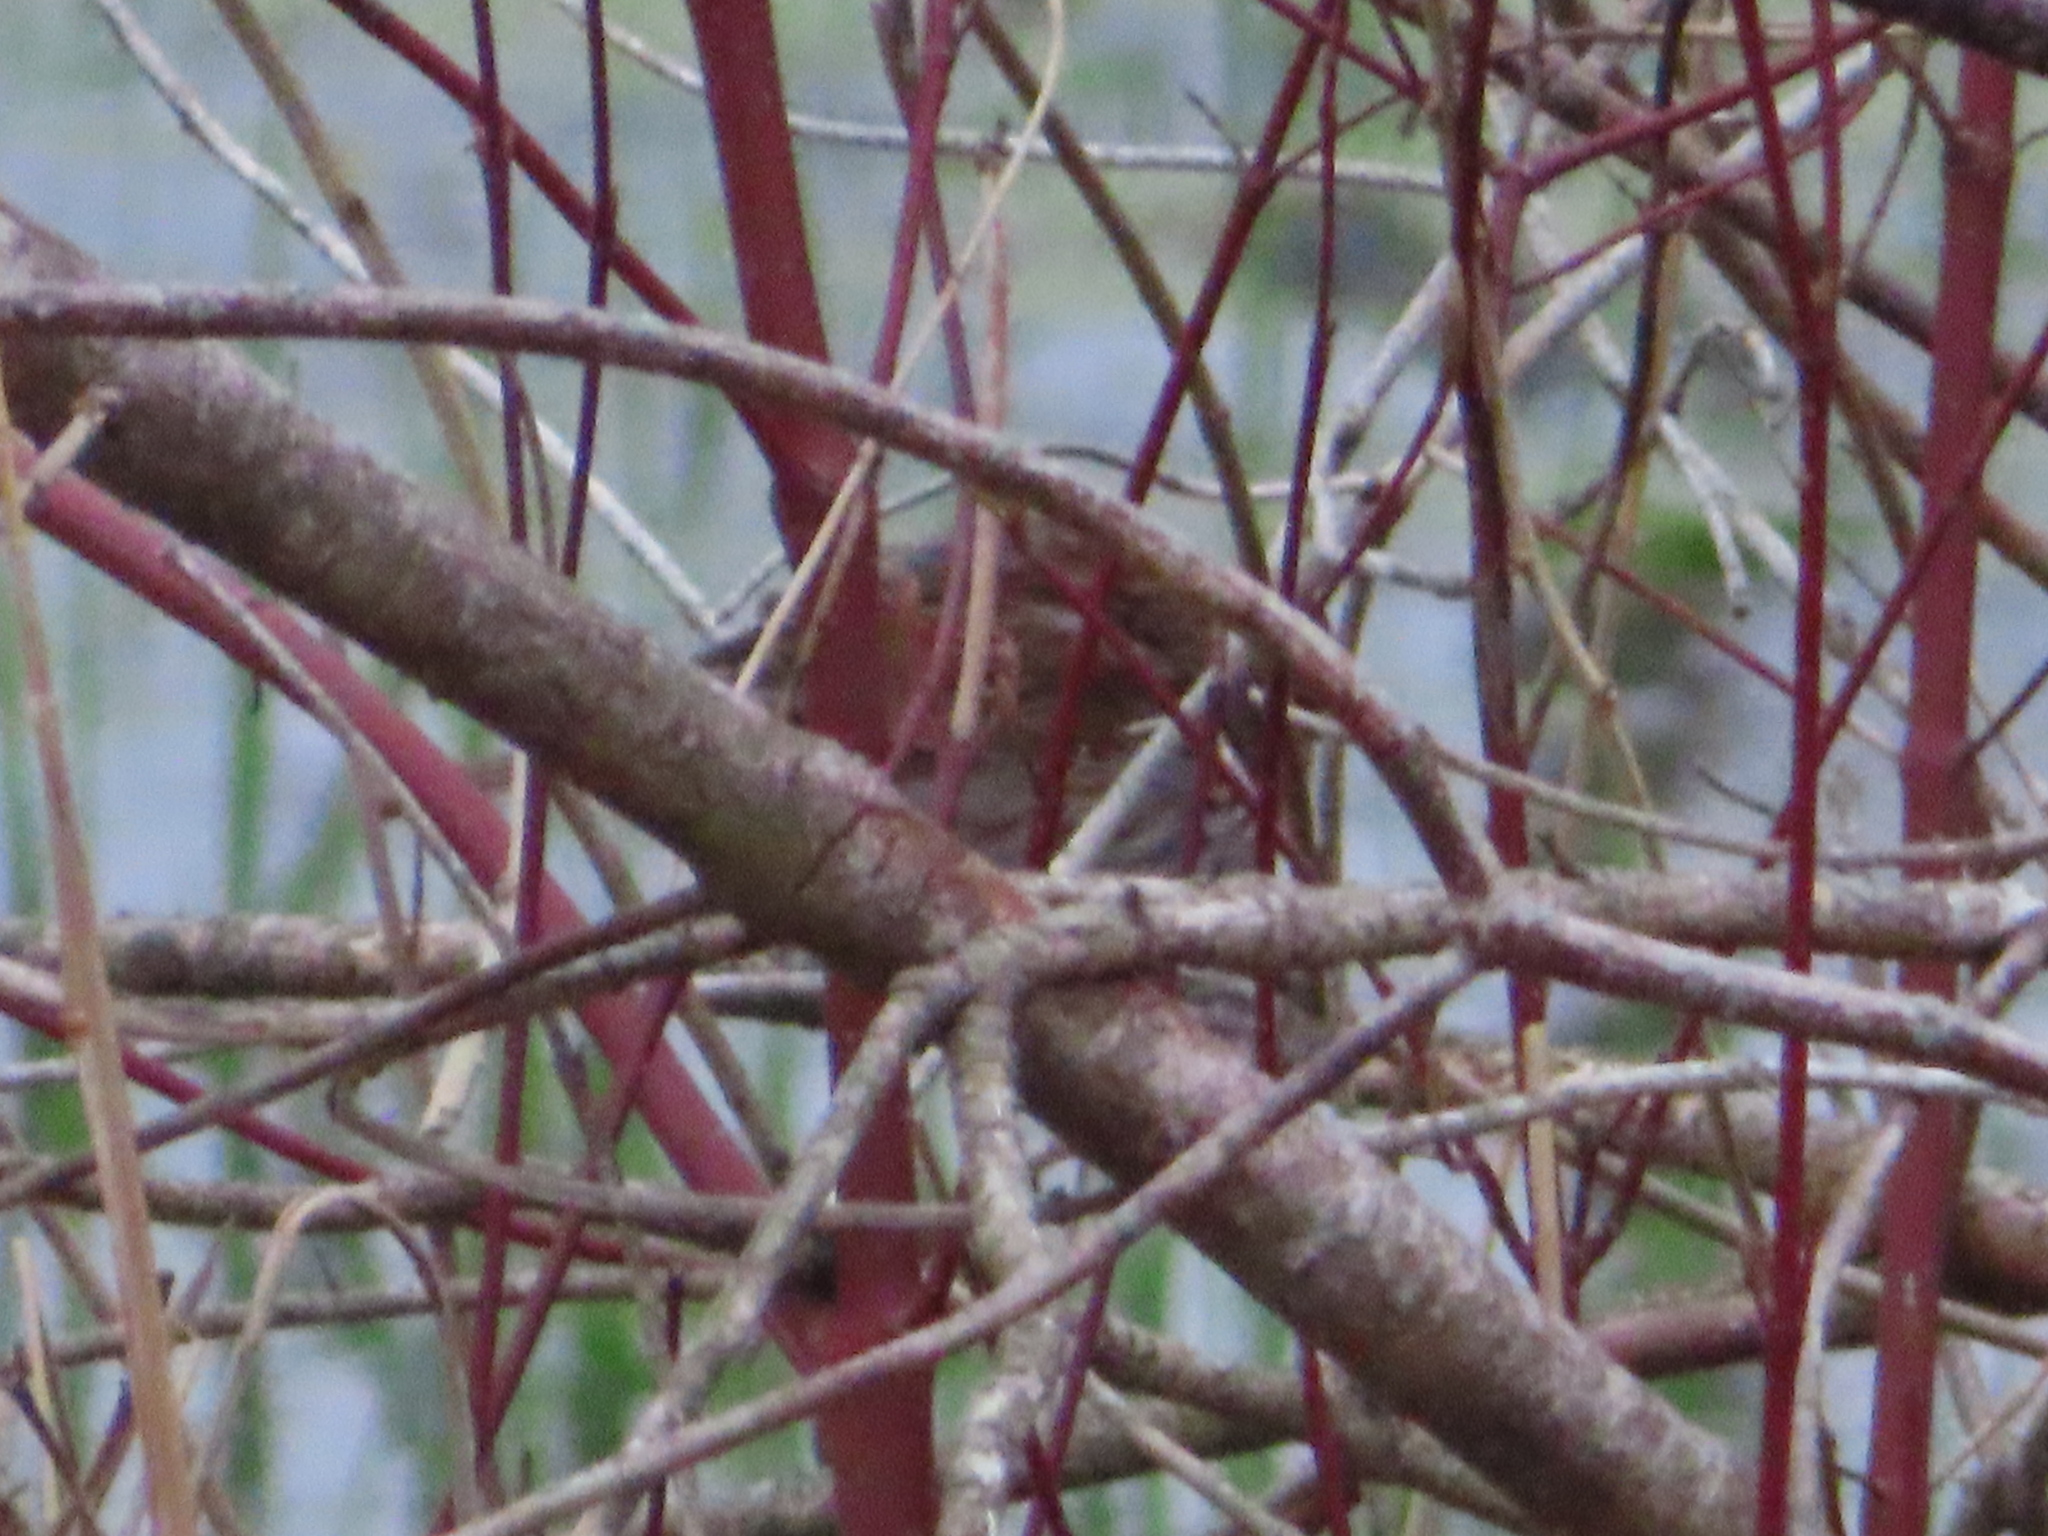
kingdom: Animalia
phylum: Chordata
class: Aves
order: Passeriformes
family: Passerellidae
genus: Melospiza
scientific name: Melospiza melodia
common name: Song sparrow
